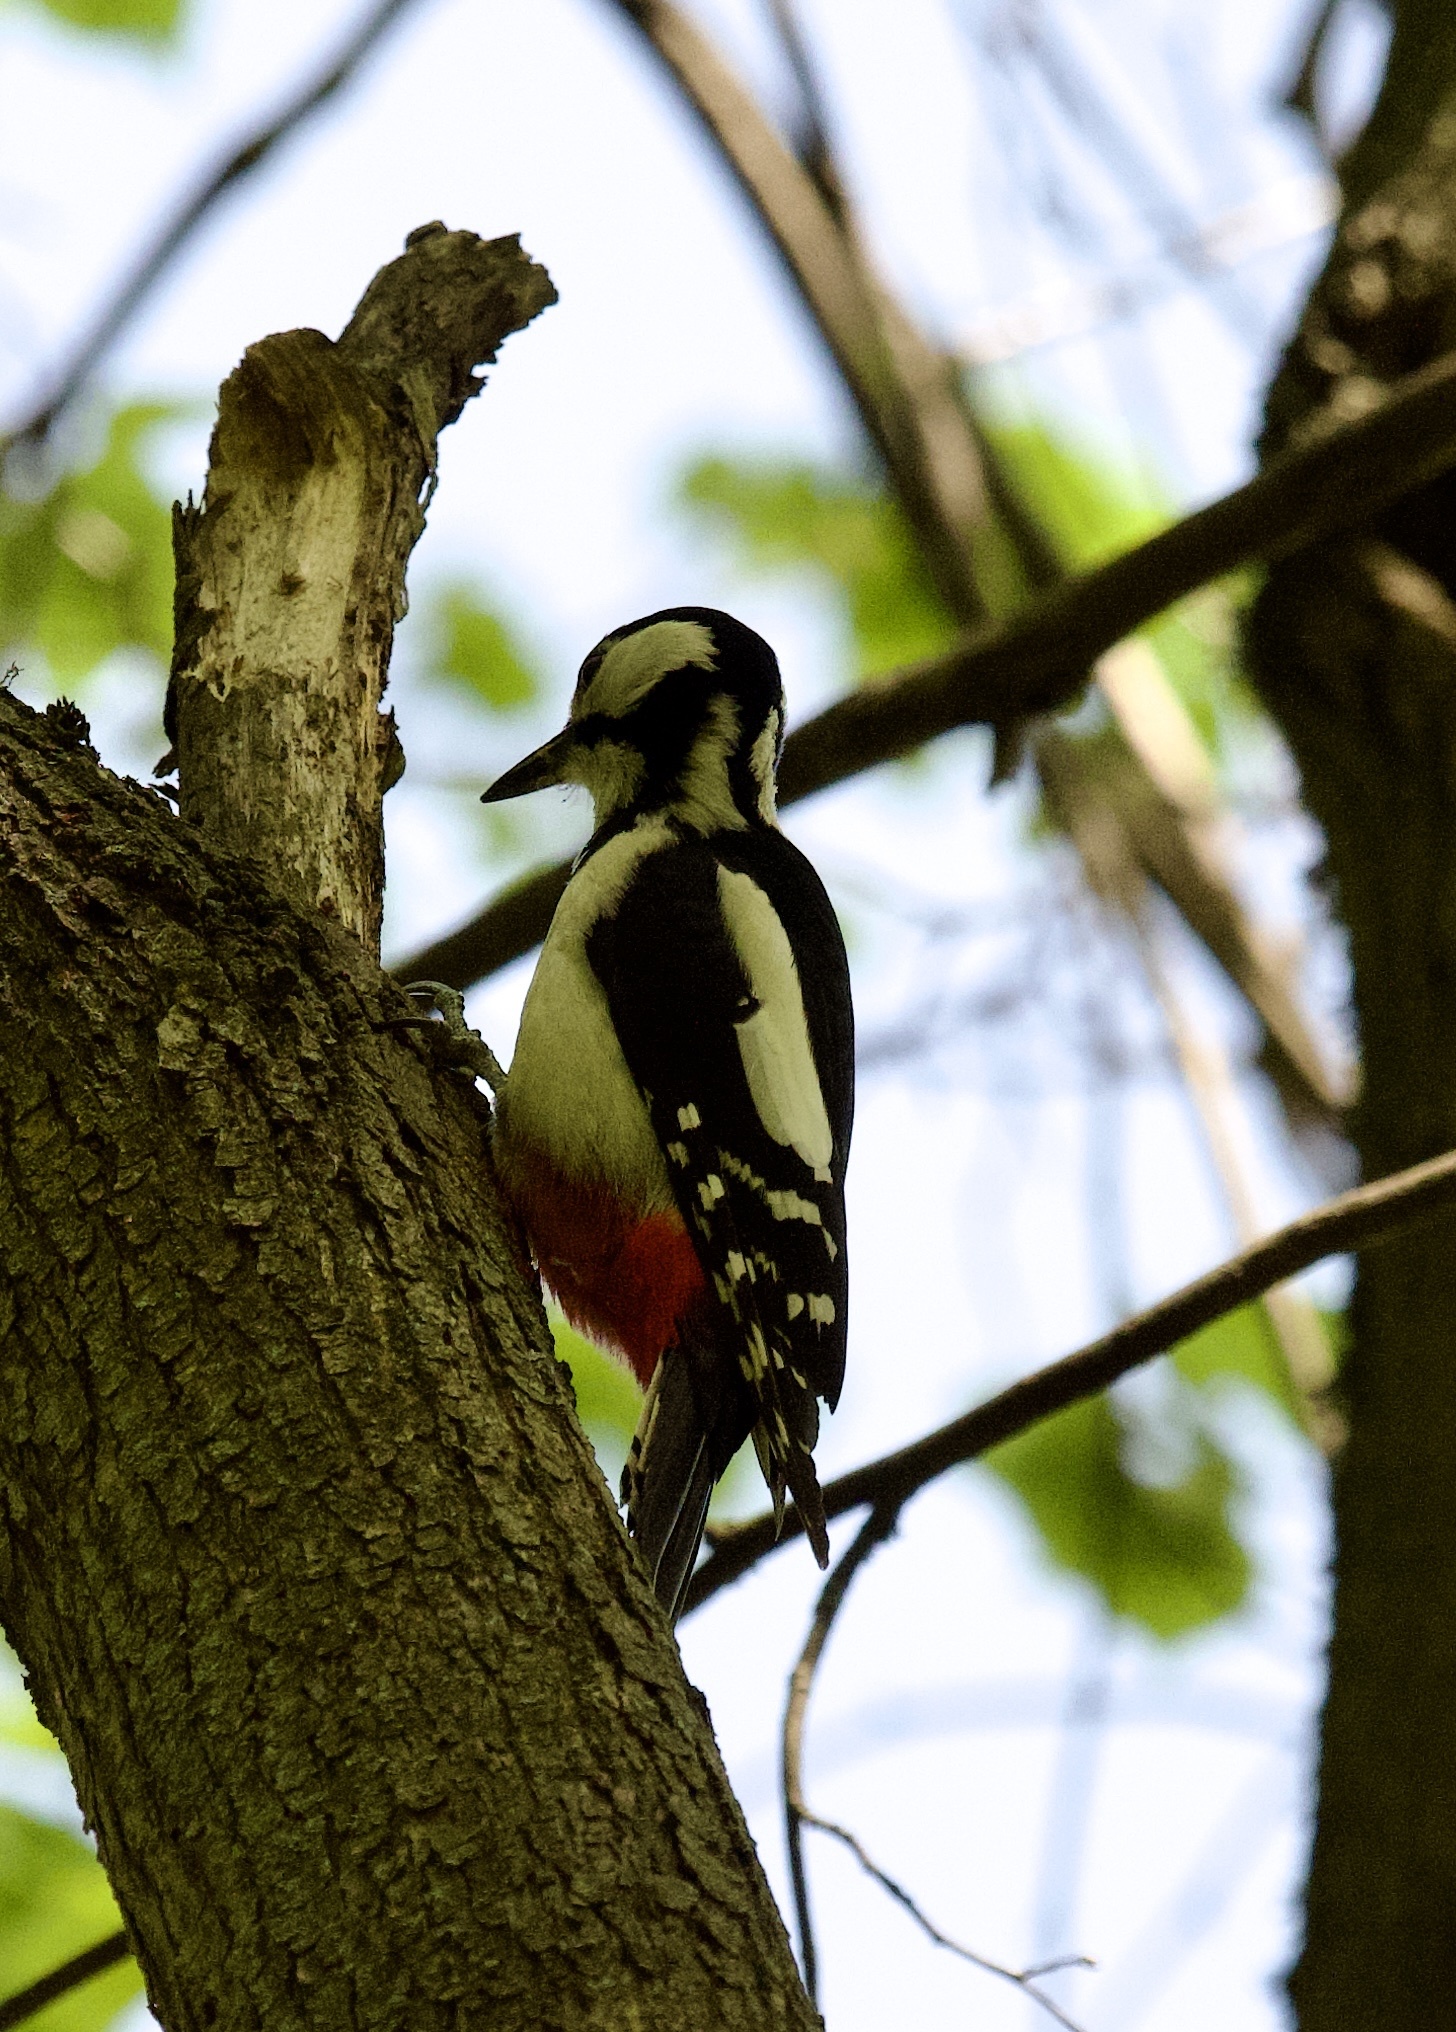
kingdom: Animalia
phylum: Chordata
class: Aves
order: Piciformes
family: Picidae
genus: Dendrocopos
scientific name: Dendrocopos major
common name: Great spotted woodpecker
